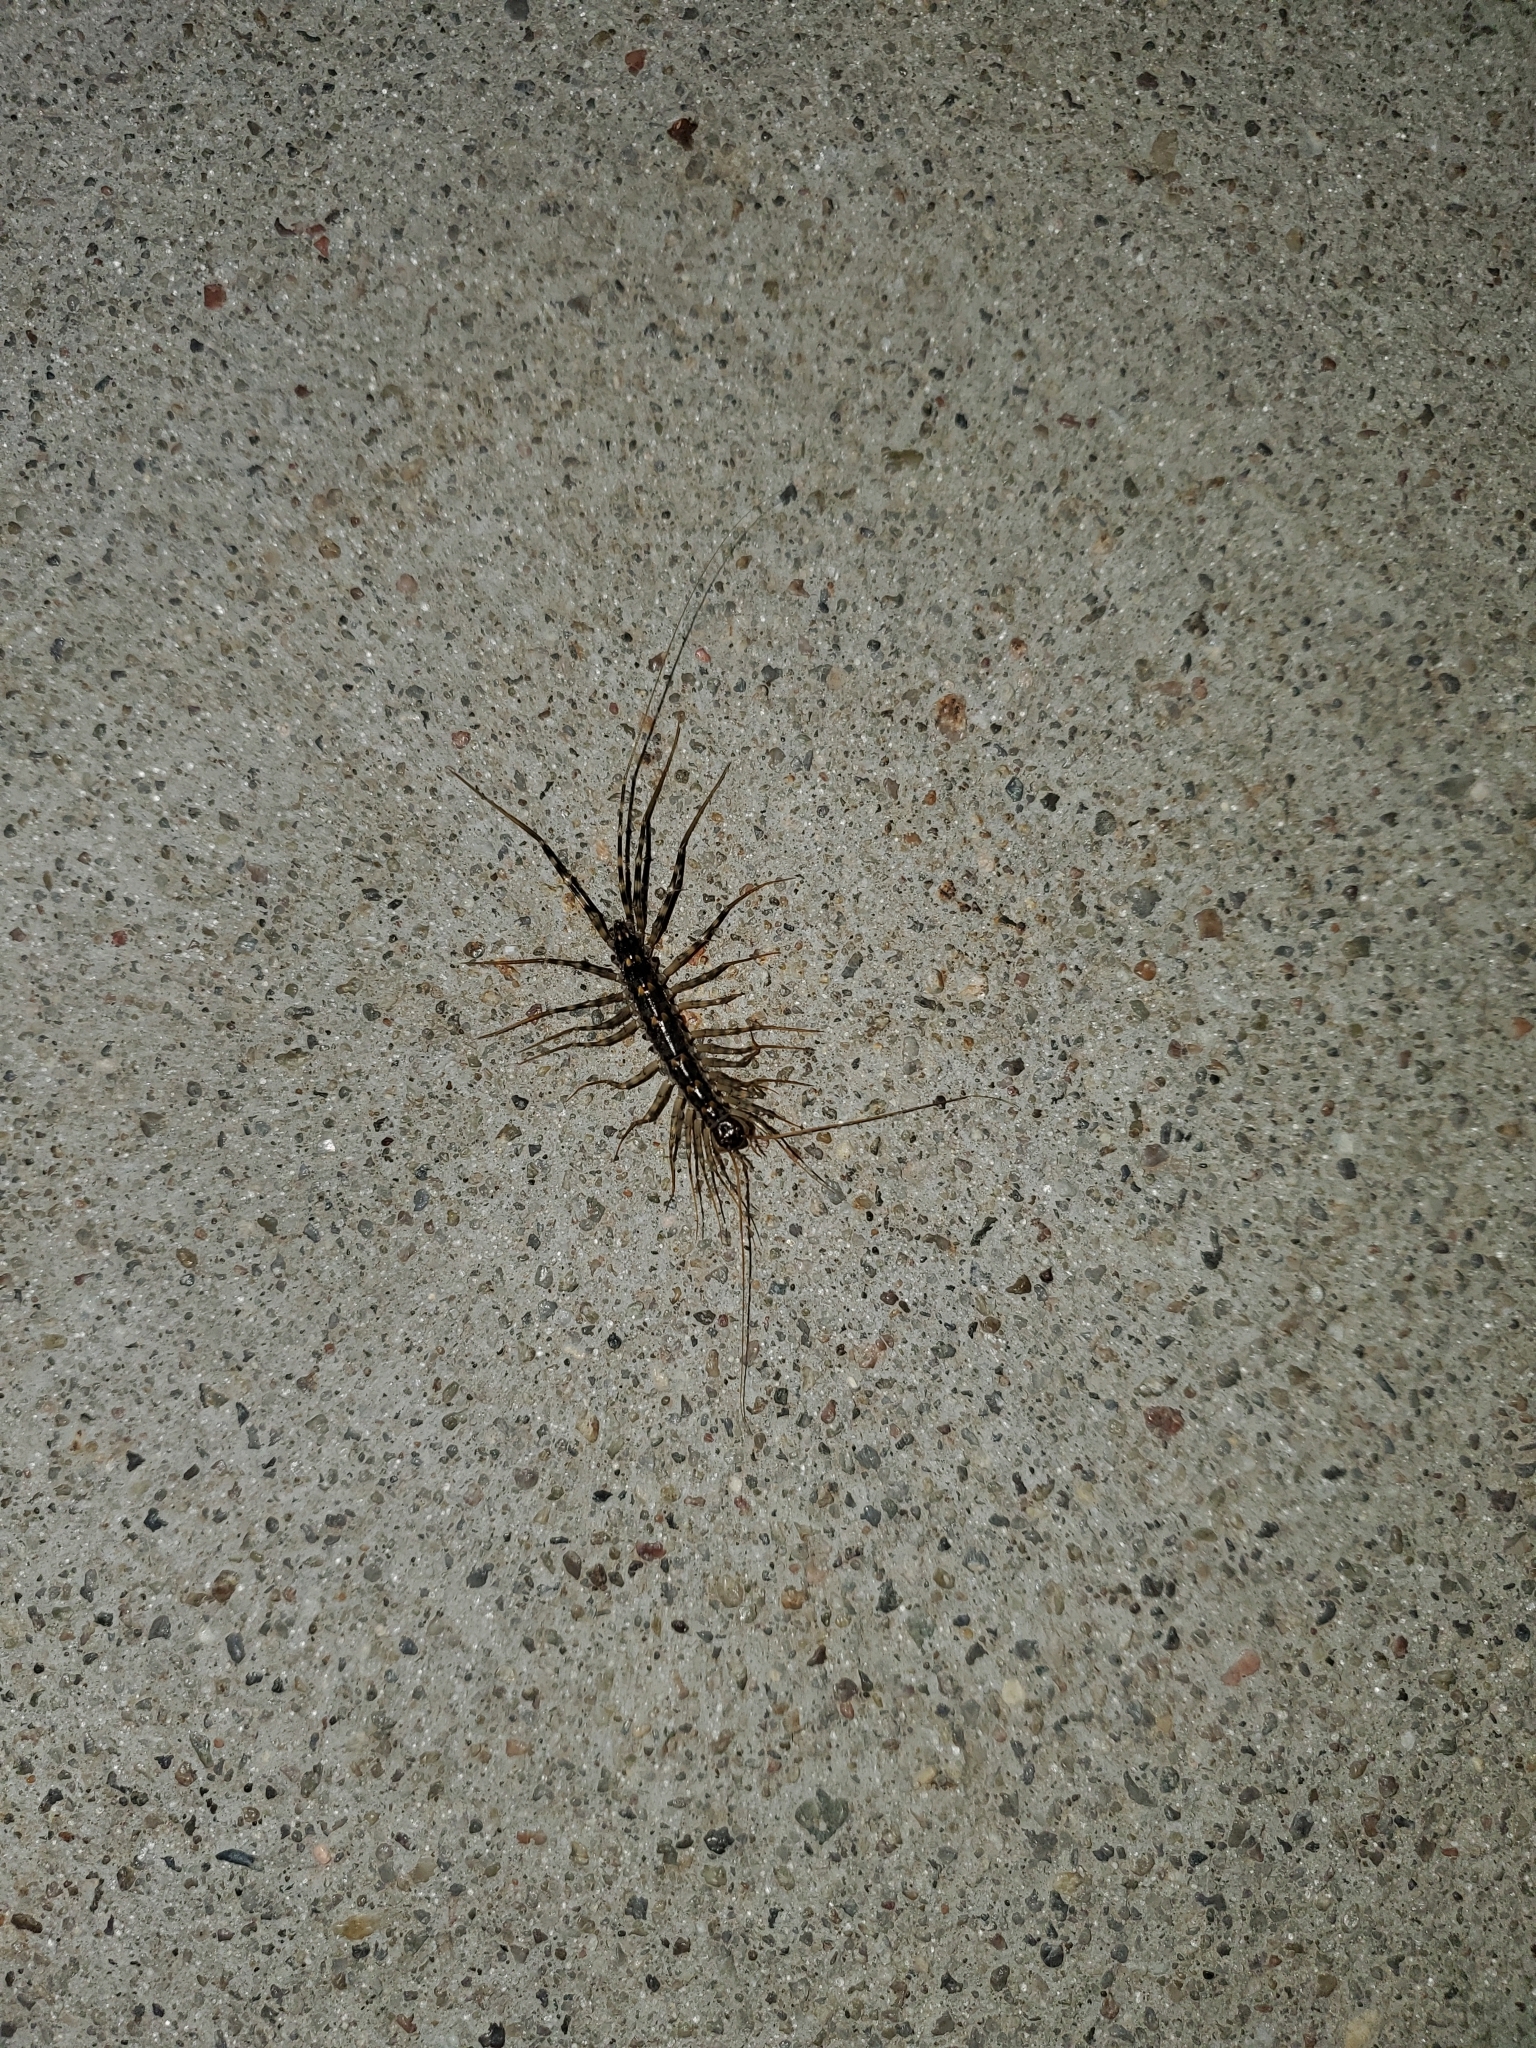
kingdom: Animalia
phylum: Arthropoda
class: Chilopoda
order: Scutigeromorpha
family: Scutigeridae
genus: Scutigera
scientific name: Scutigera coleoptrata
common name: House centipede
